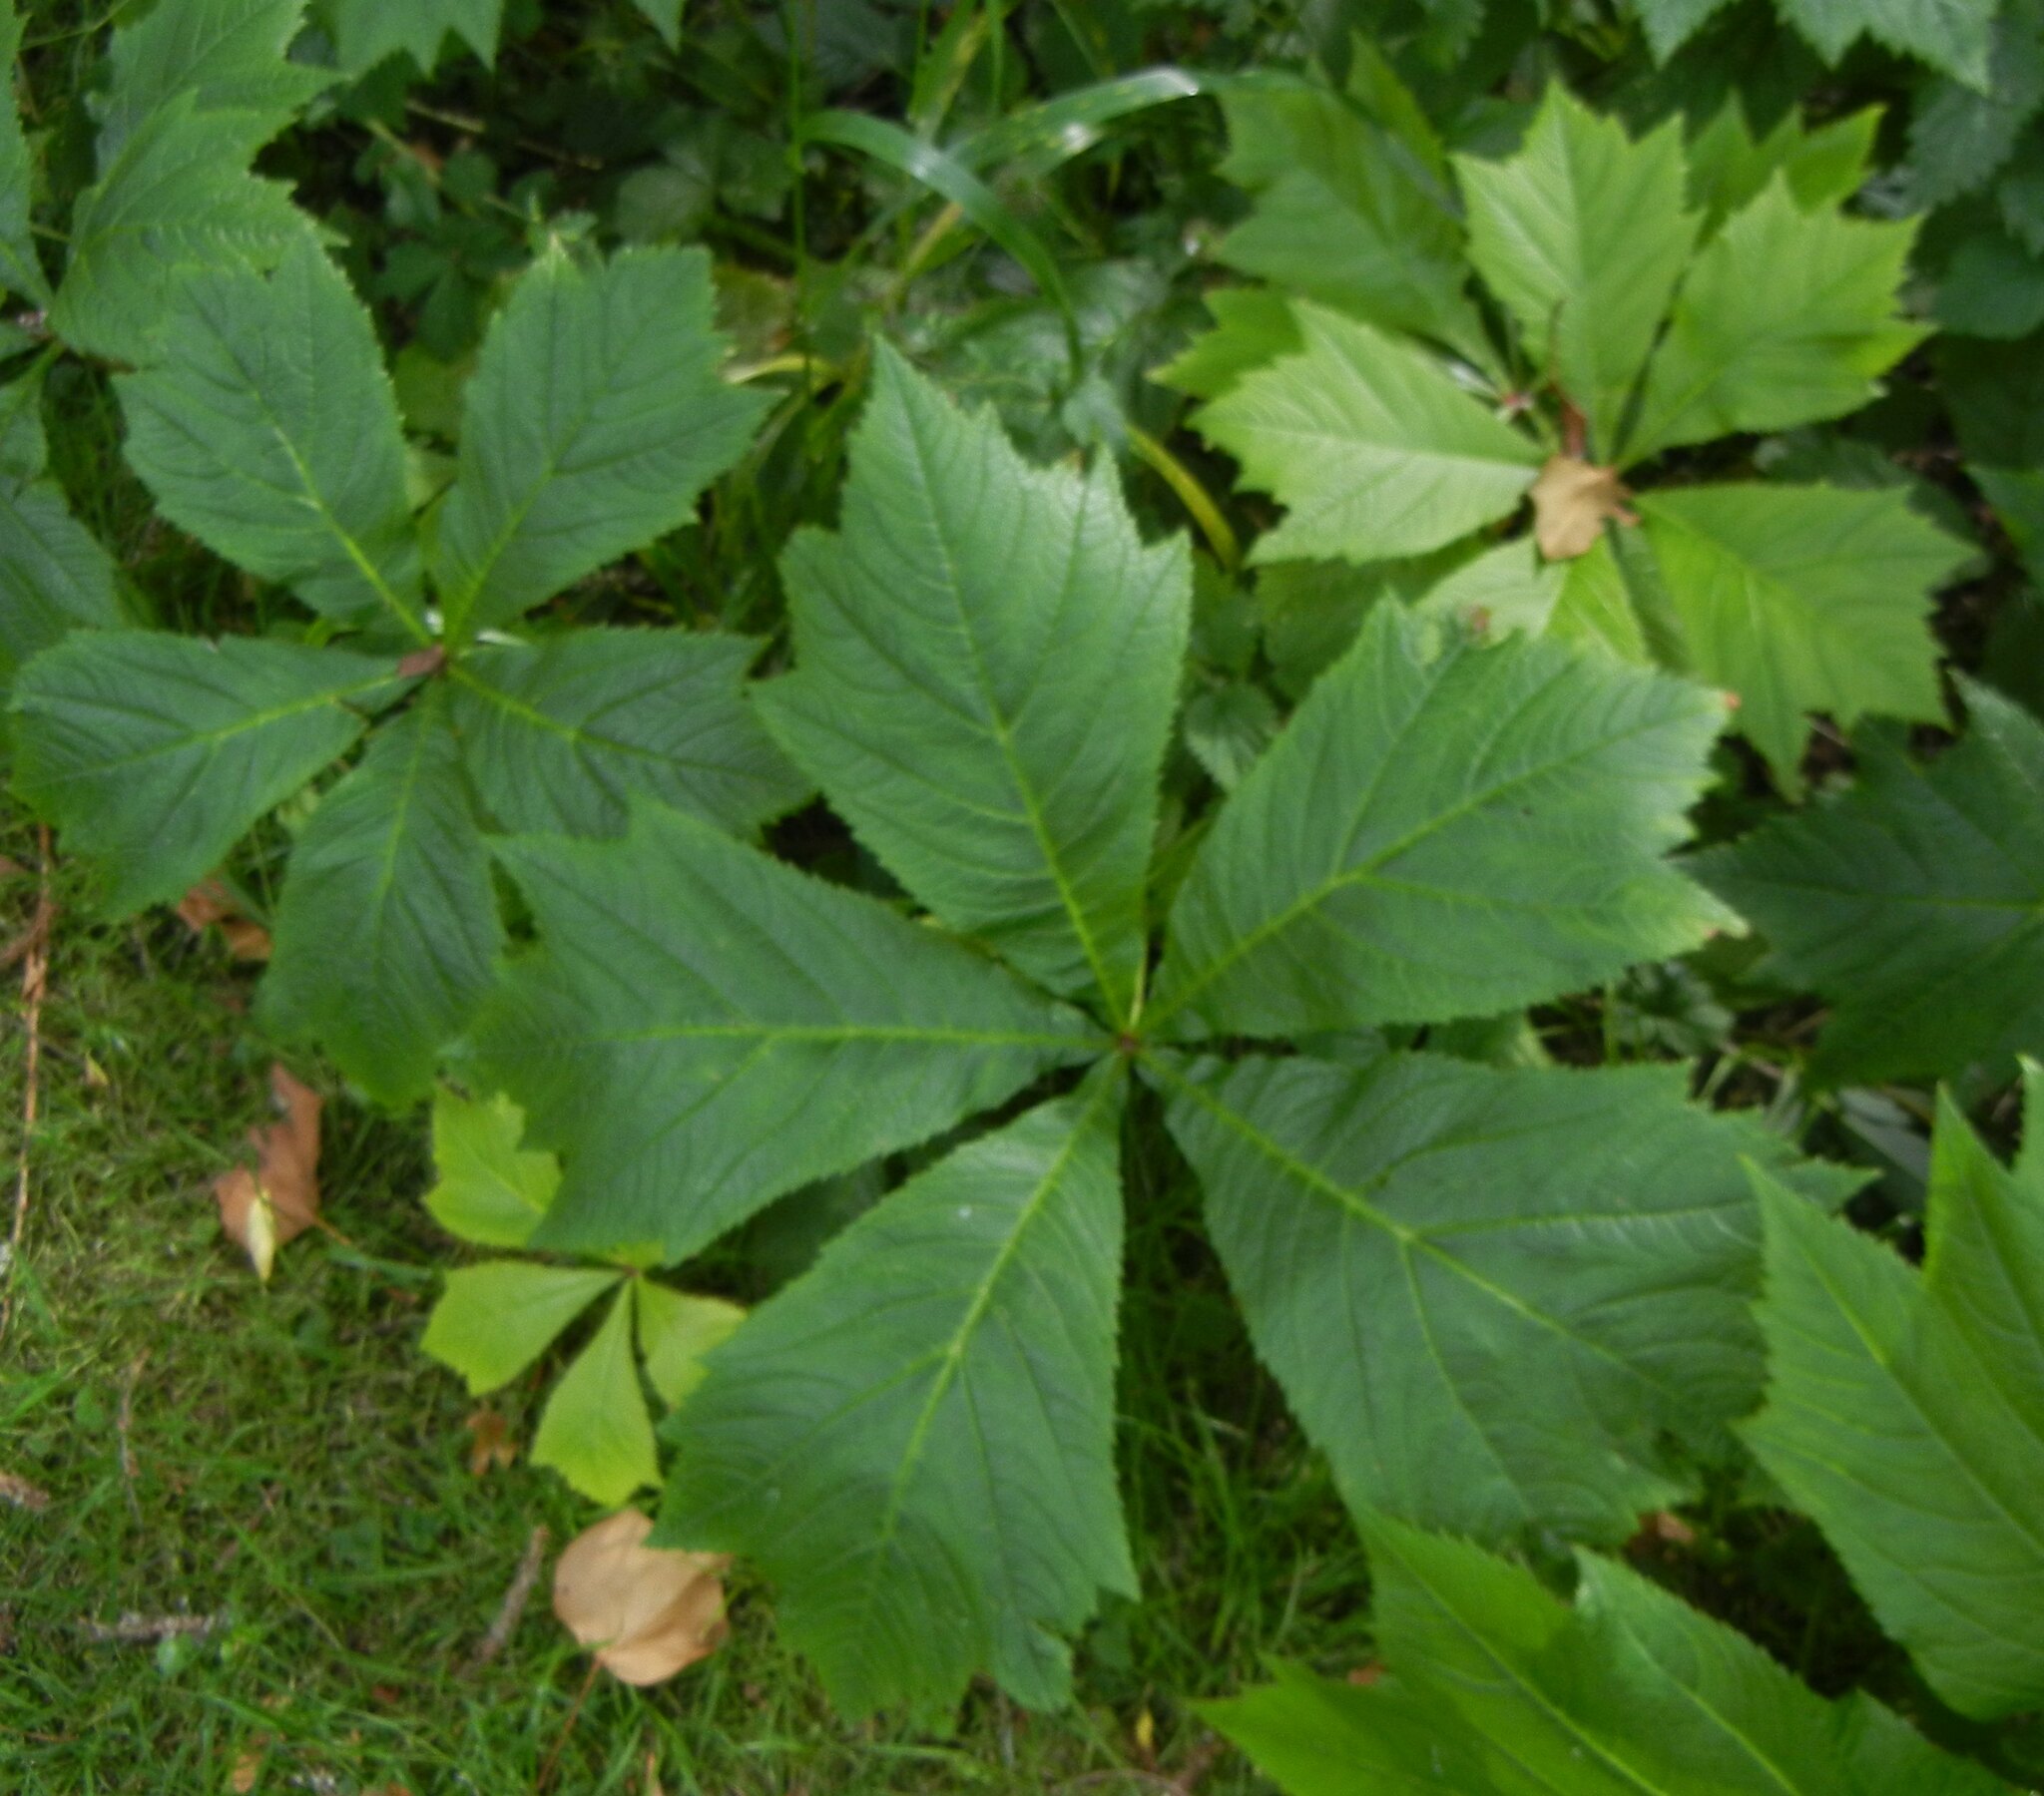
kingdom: Plantae
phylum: Tracheophyta
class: Magnoliopsida
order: Saxifragales
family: Saxifragaceae
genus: Rodgersia
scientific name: Rodgersia podophylla
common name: Rodgersia
